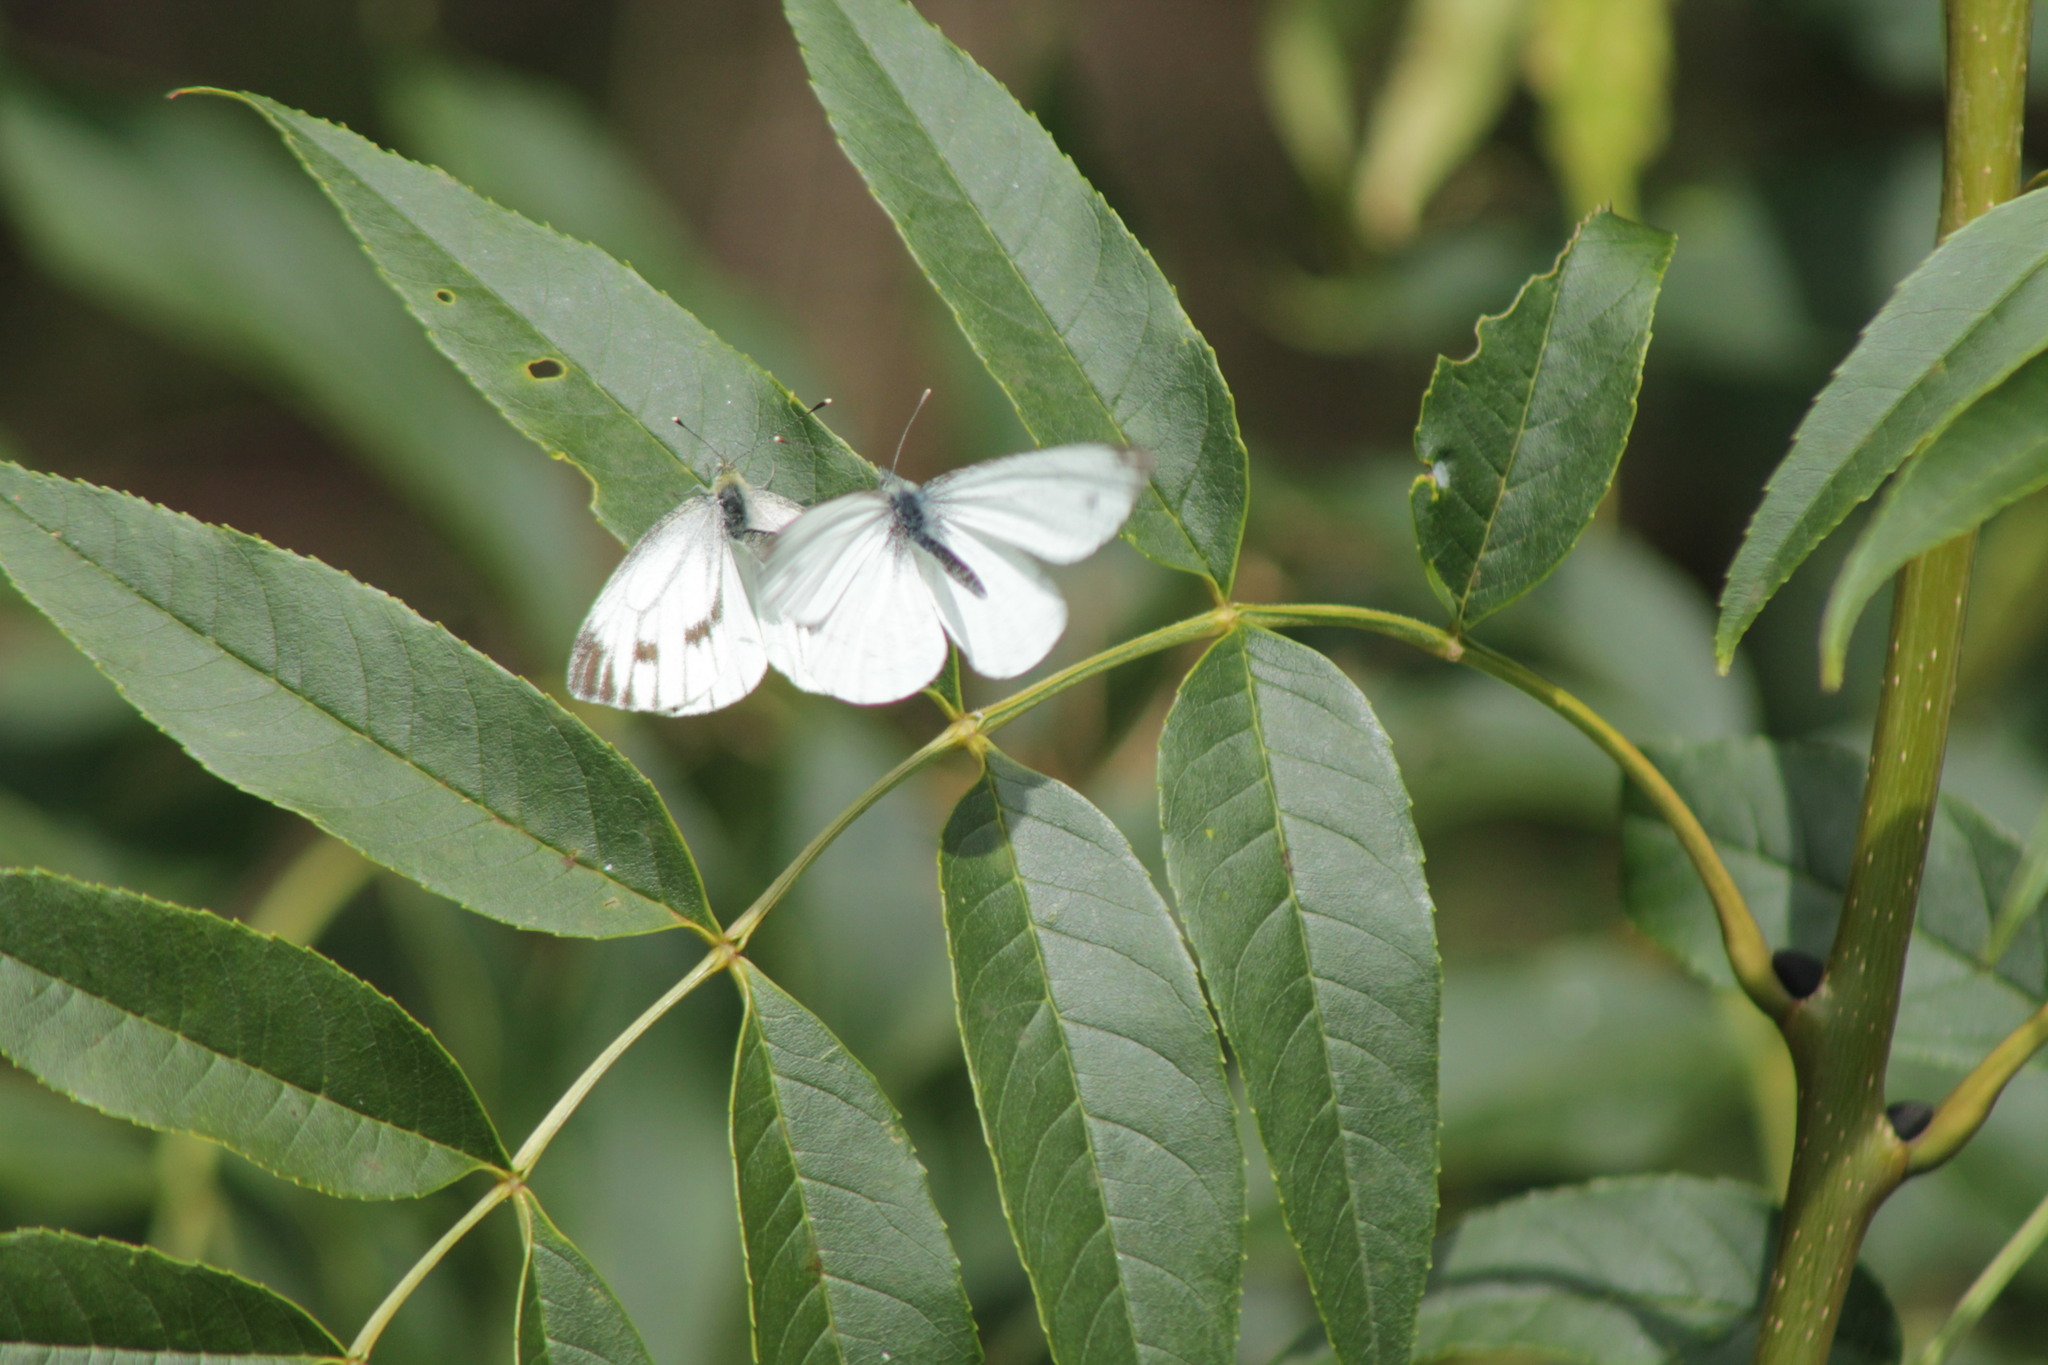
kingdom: Animalia
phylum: Arthropoda
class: Insecta
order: Lepidoptera
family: Pieridae
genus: Pieris
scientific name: Pieris napi
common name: Green-veined white
